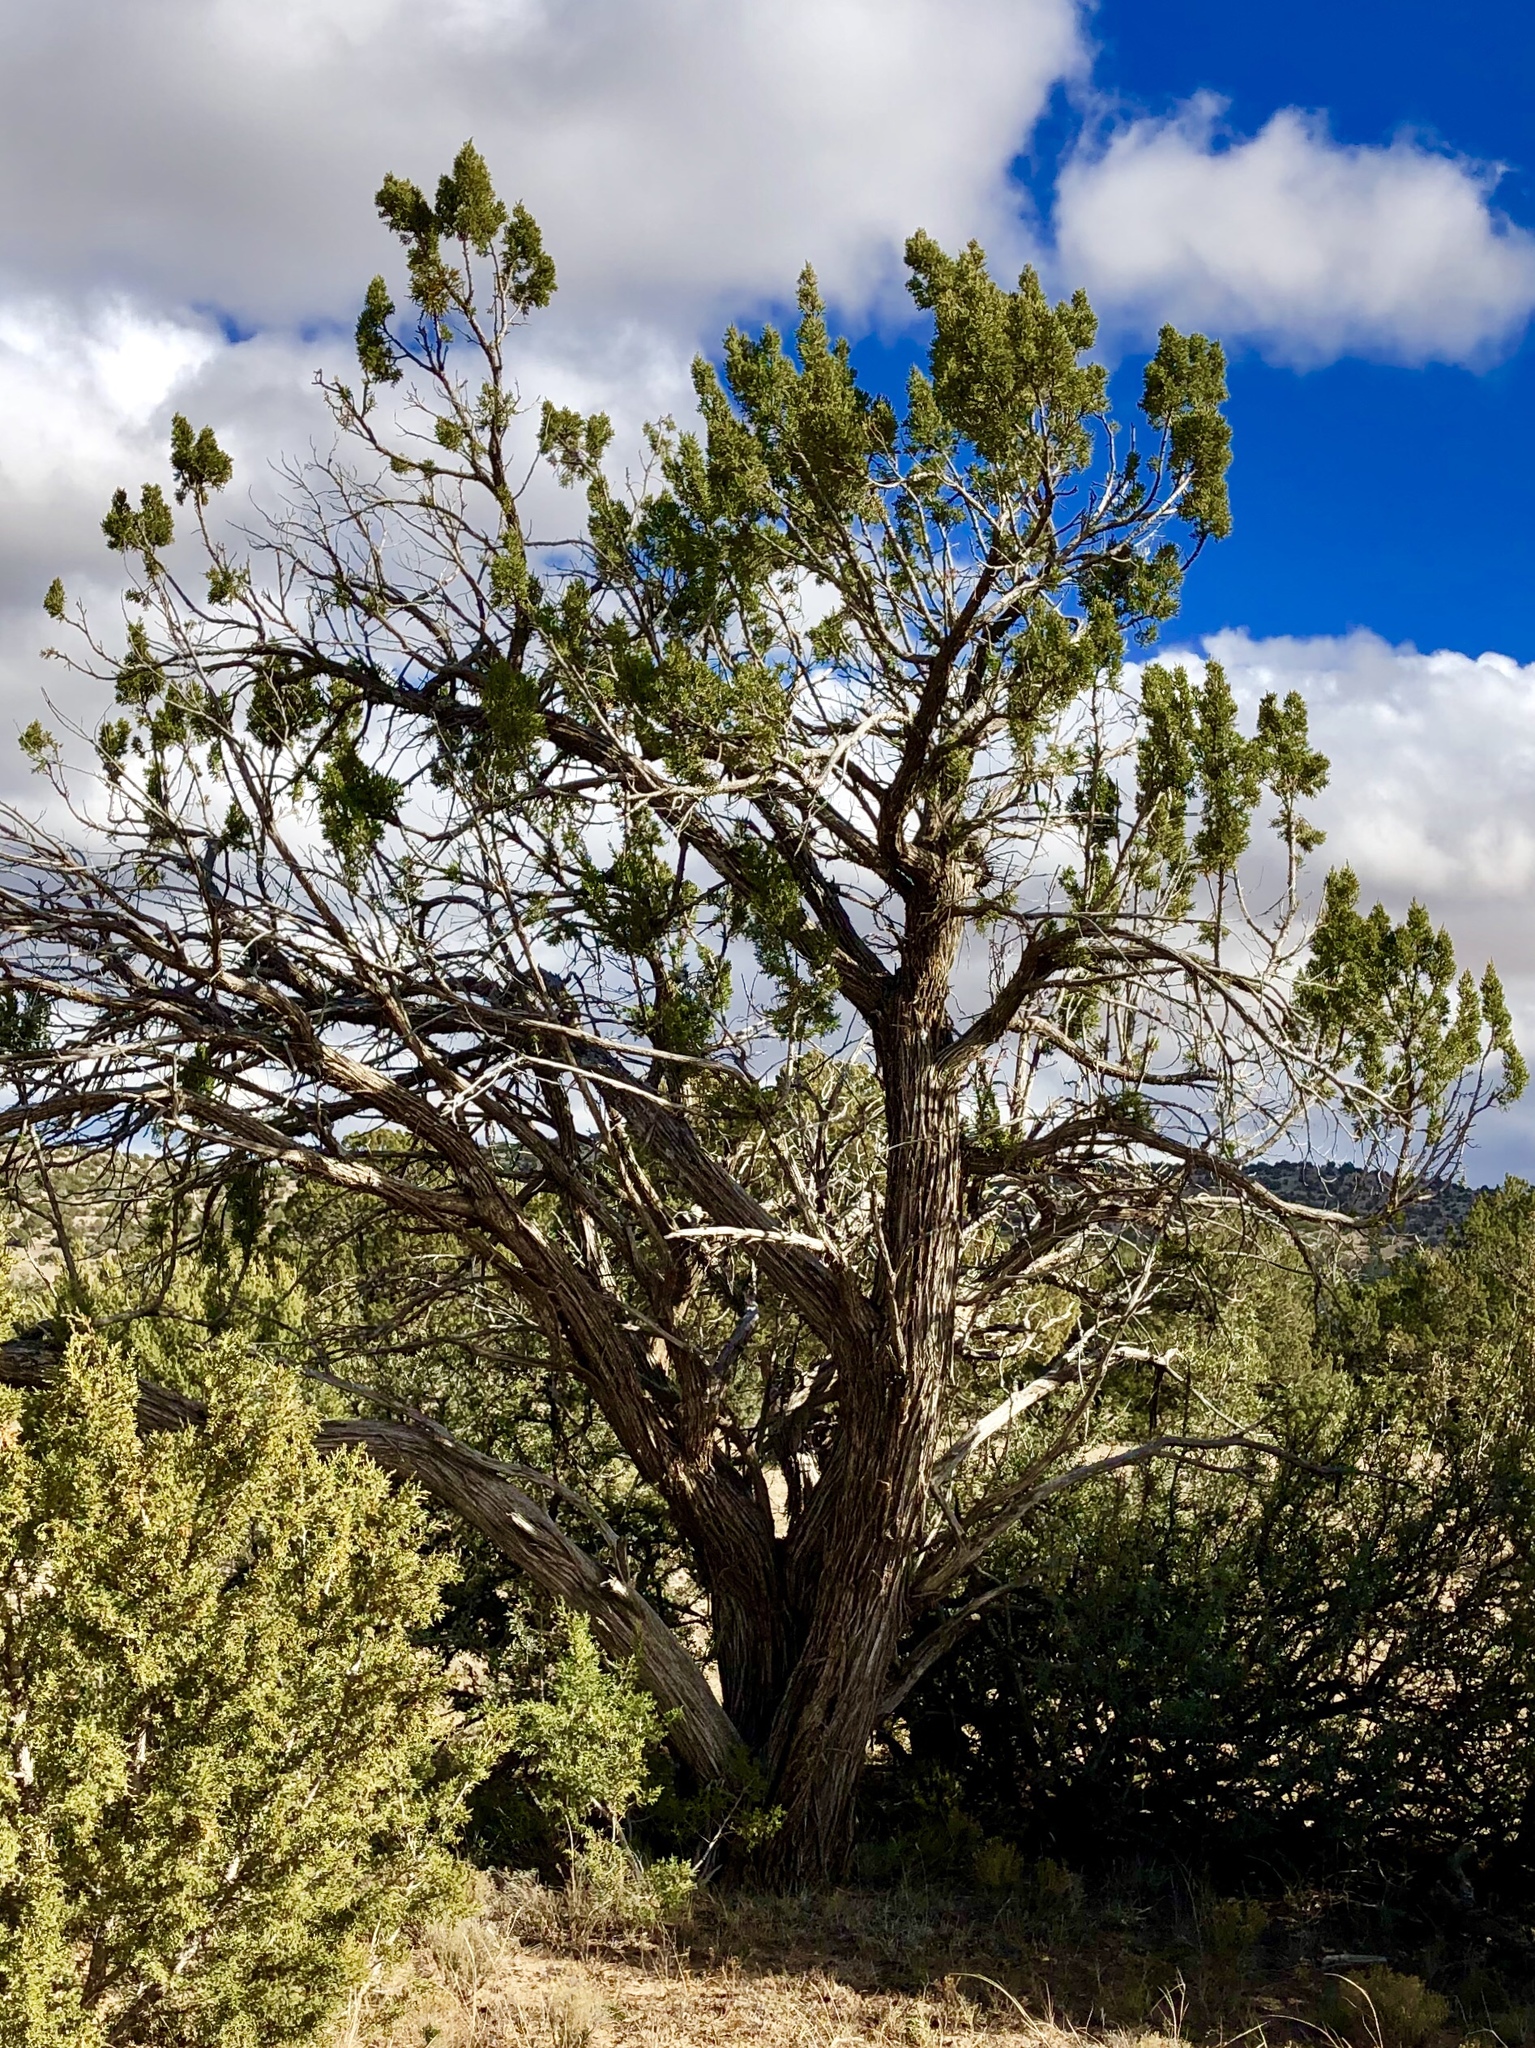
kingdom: Plantae
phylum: Tracheophyta
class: Pinopsida
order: Pinales
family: Cupressaceae
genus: Juniperus
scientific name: Juniperus monosperma
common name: One-seed juniper
